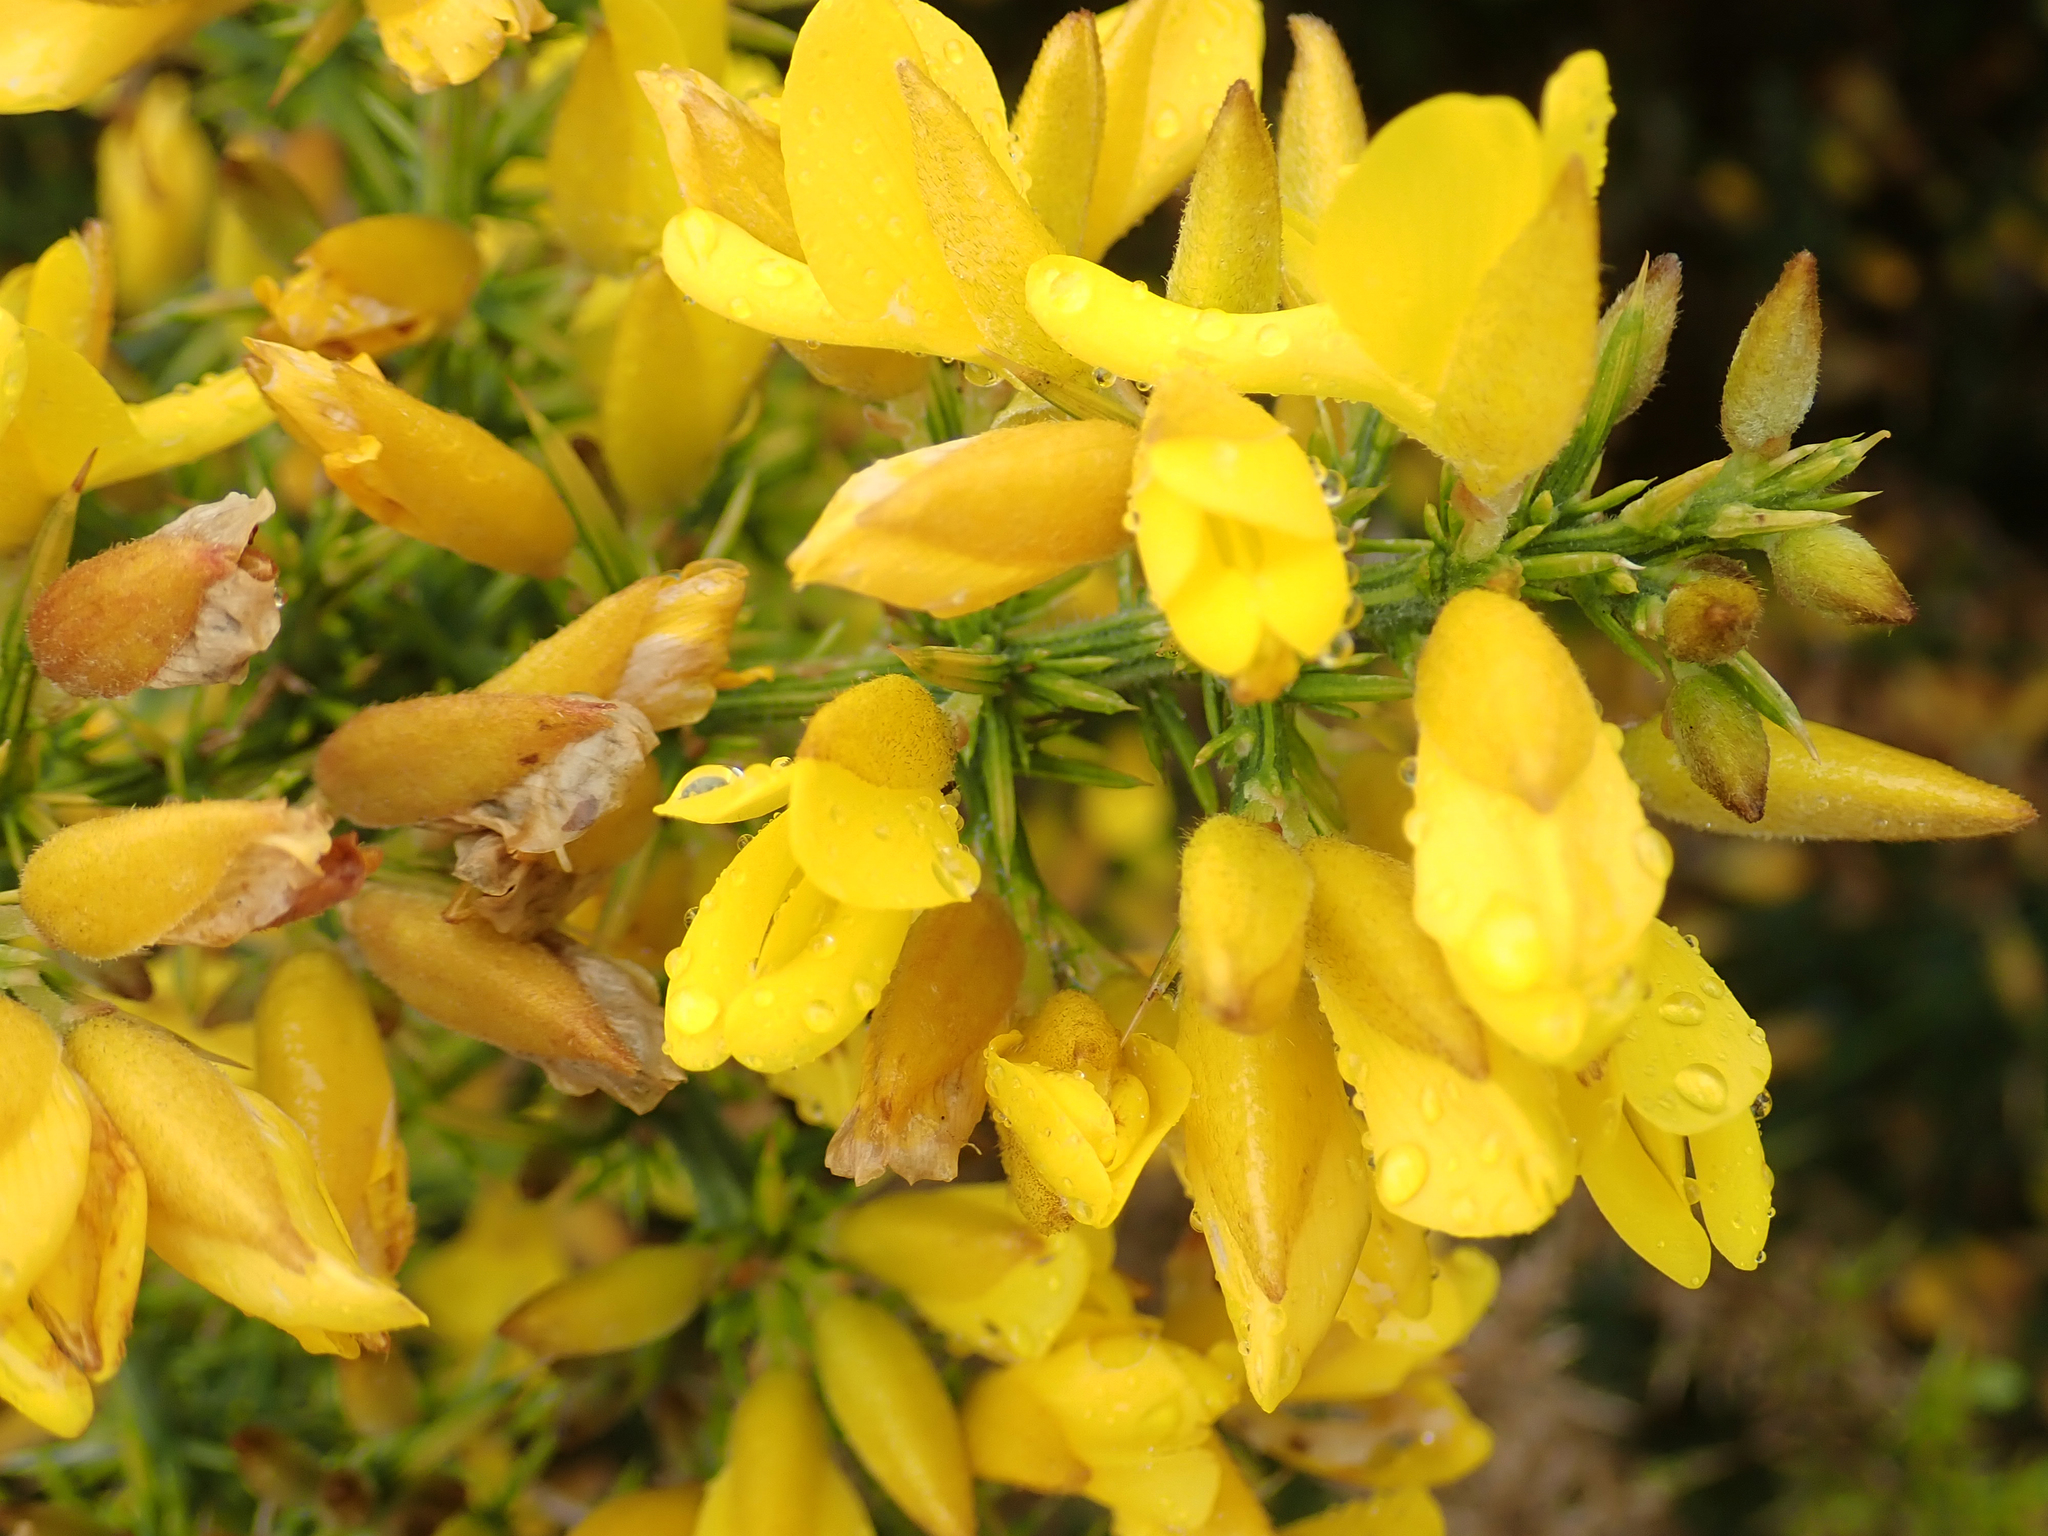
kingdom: Plantae
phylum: Tracheophyta
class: Magnoliopsida
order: Fabales
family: Fabaceae
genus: Ulex
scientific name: Ulex europaeus
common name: Common gorse
